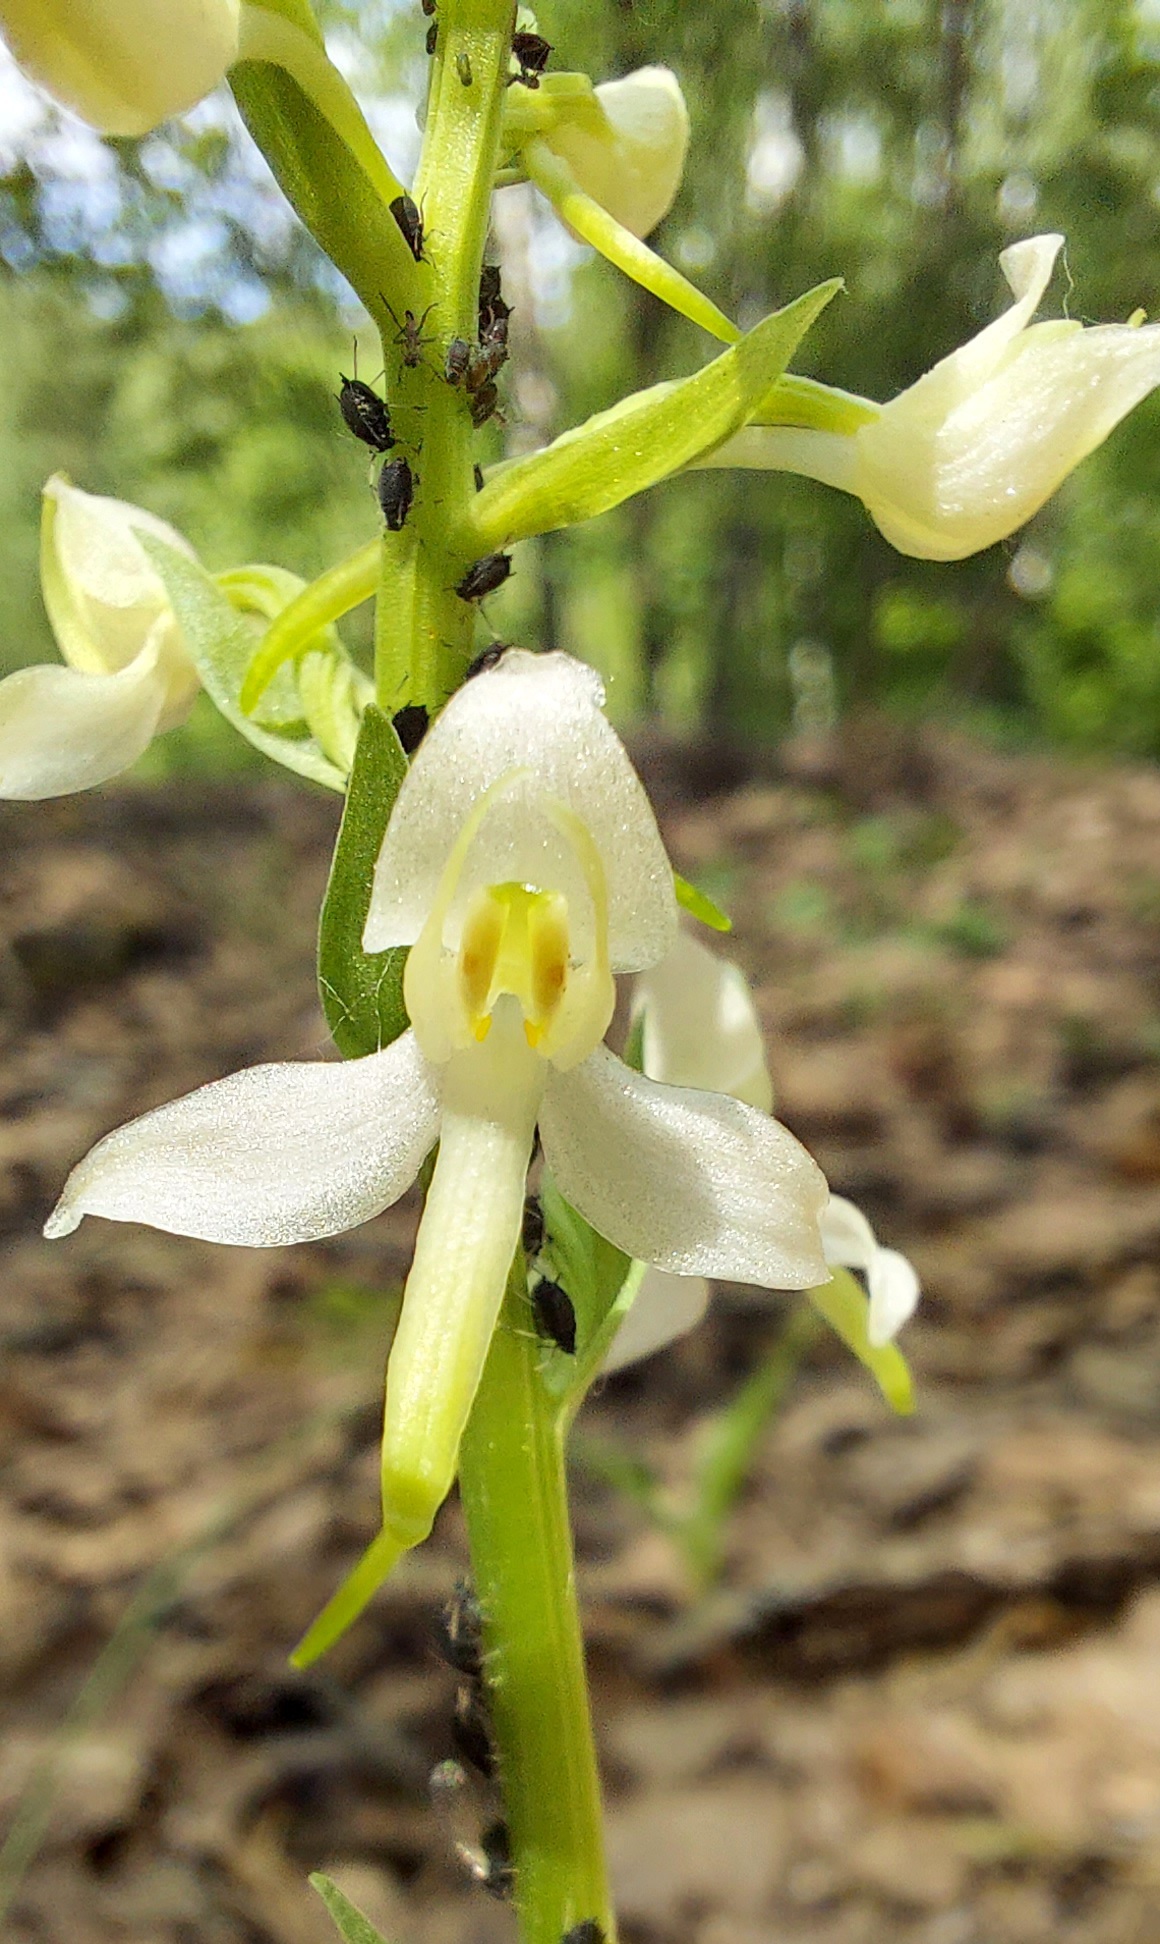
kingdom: Plantae
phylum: Tracheophyta
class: Liliopsida
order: Asparagales
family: Orchidaceae
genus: Platanthera
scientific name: Platanthera bifolia
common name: Lesser butterfly-orchid
